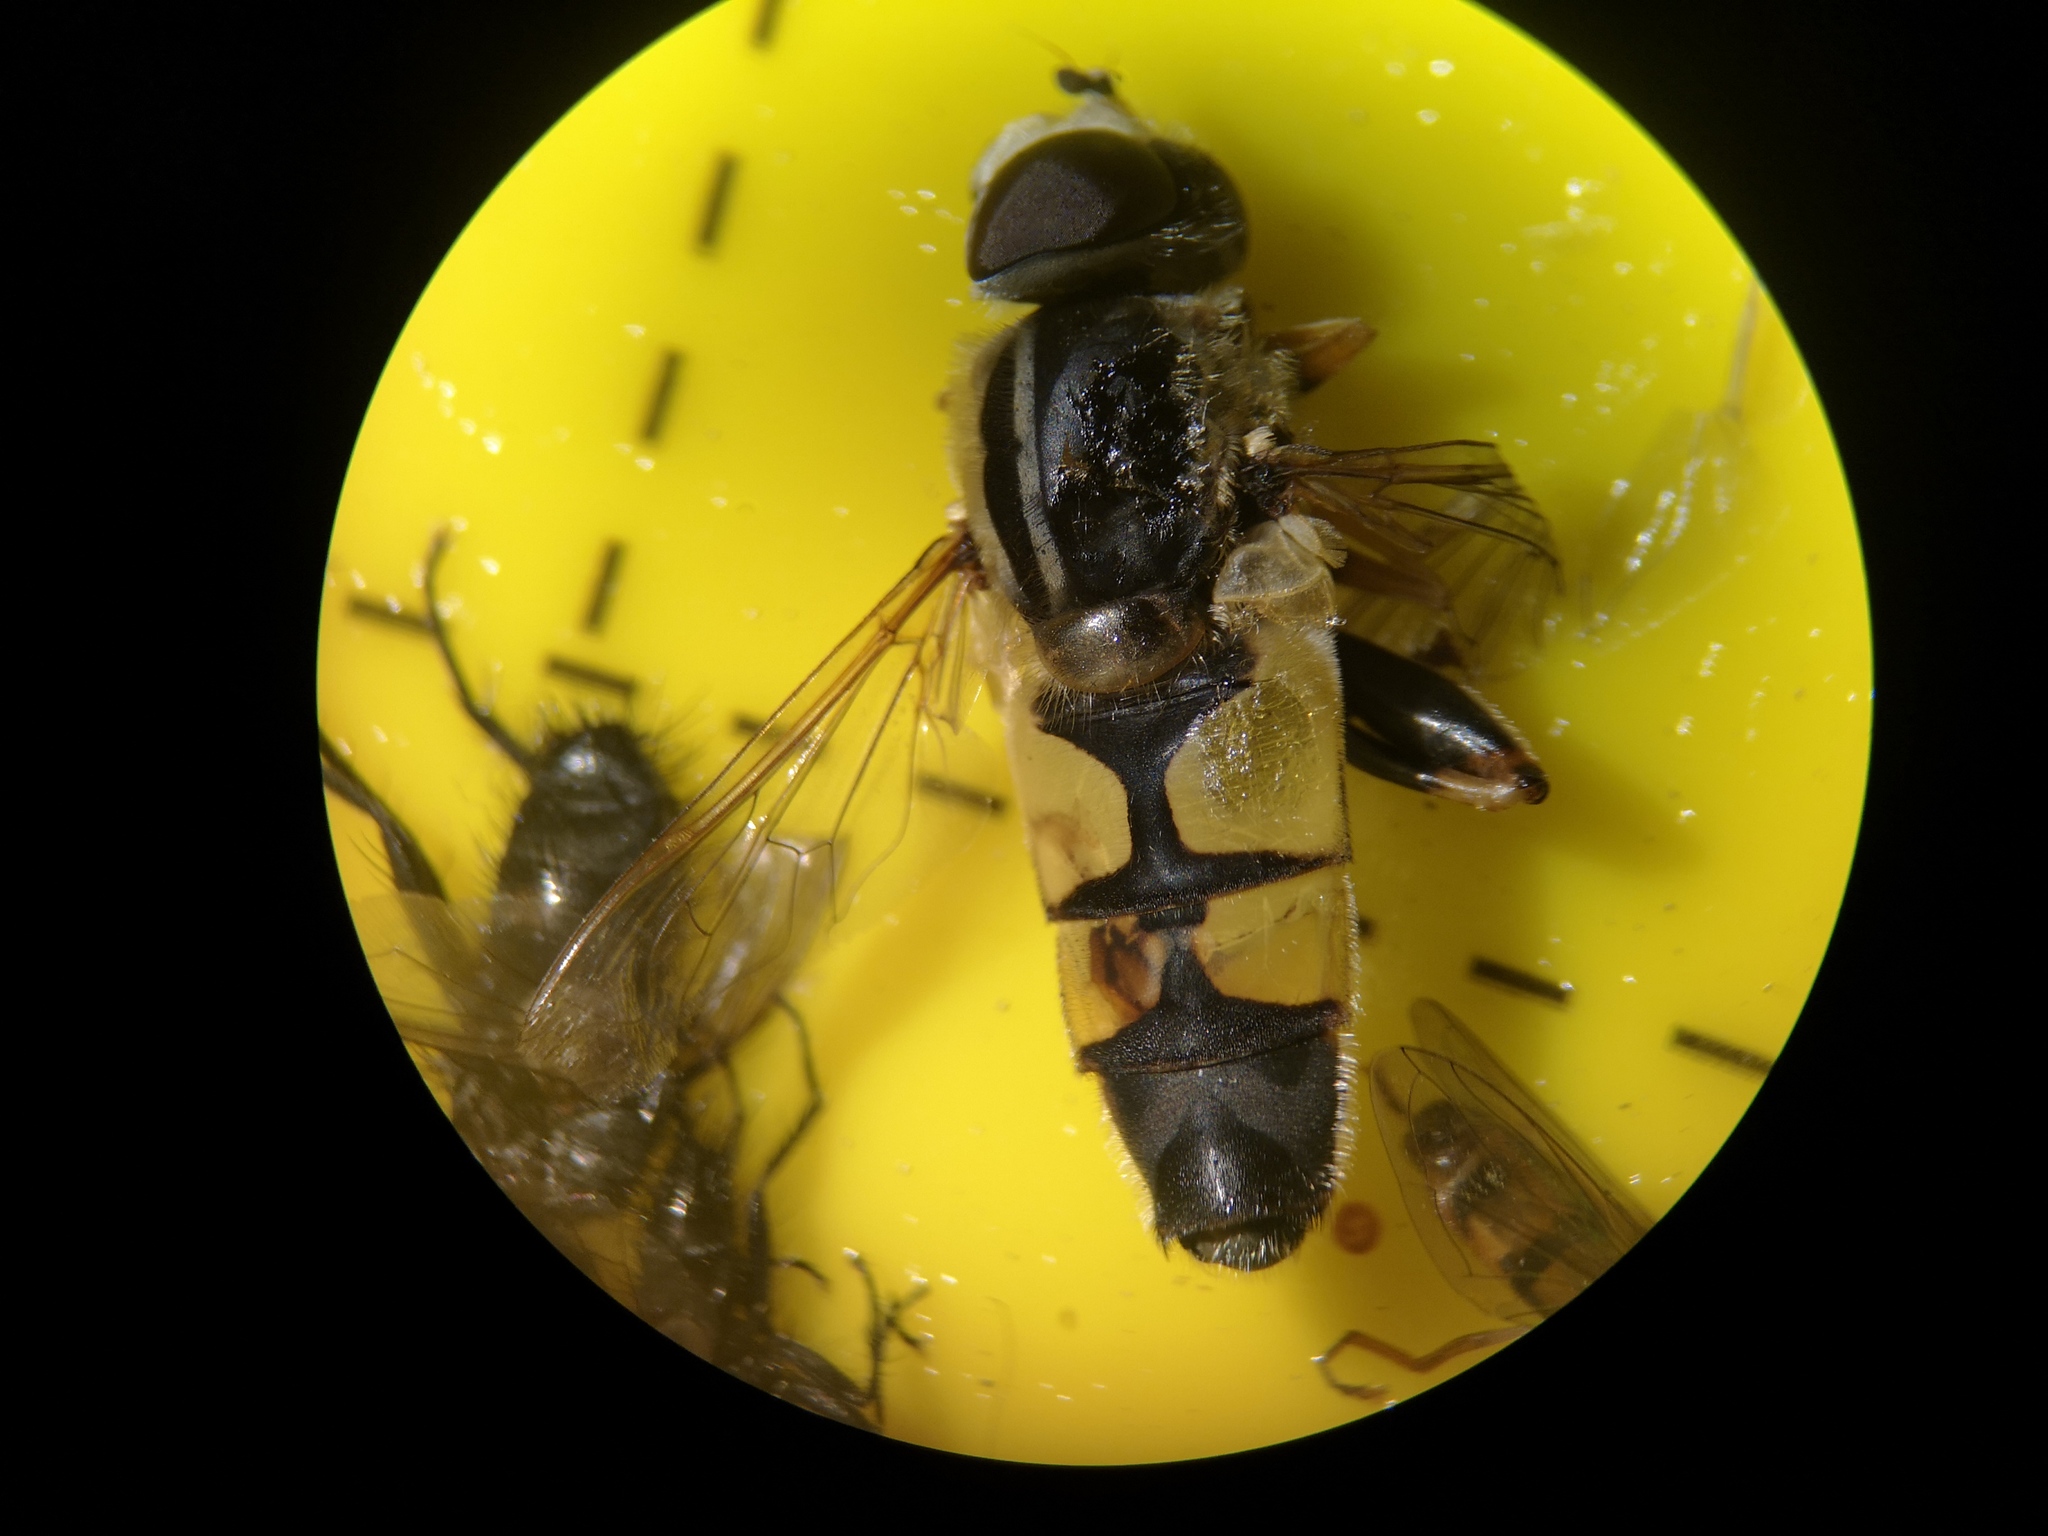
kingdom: Animalia
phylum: Arthropoda
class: Insecta
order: Diptera
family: Syrphidae
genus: Helophilus
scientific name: Helophilus trivittatus
